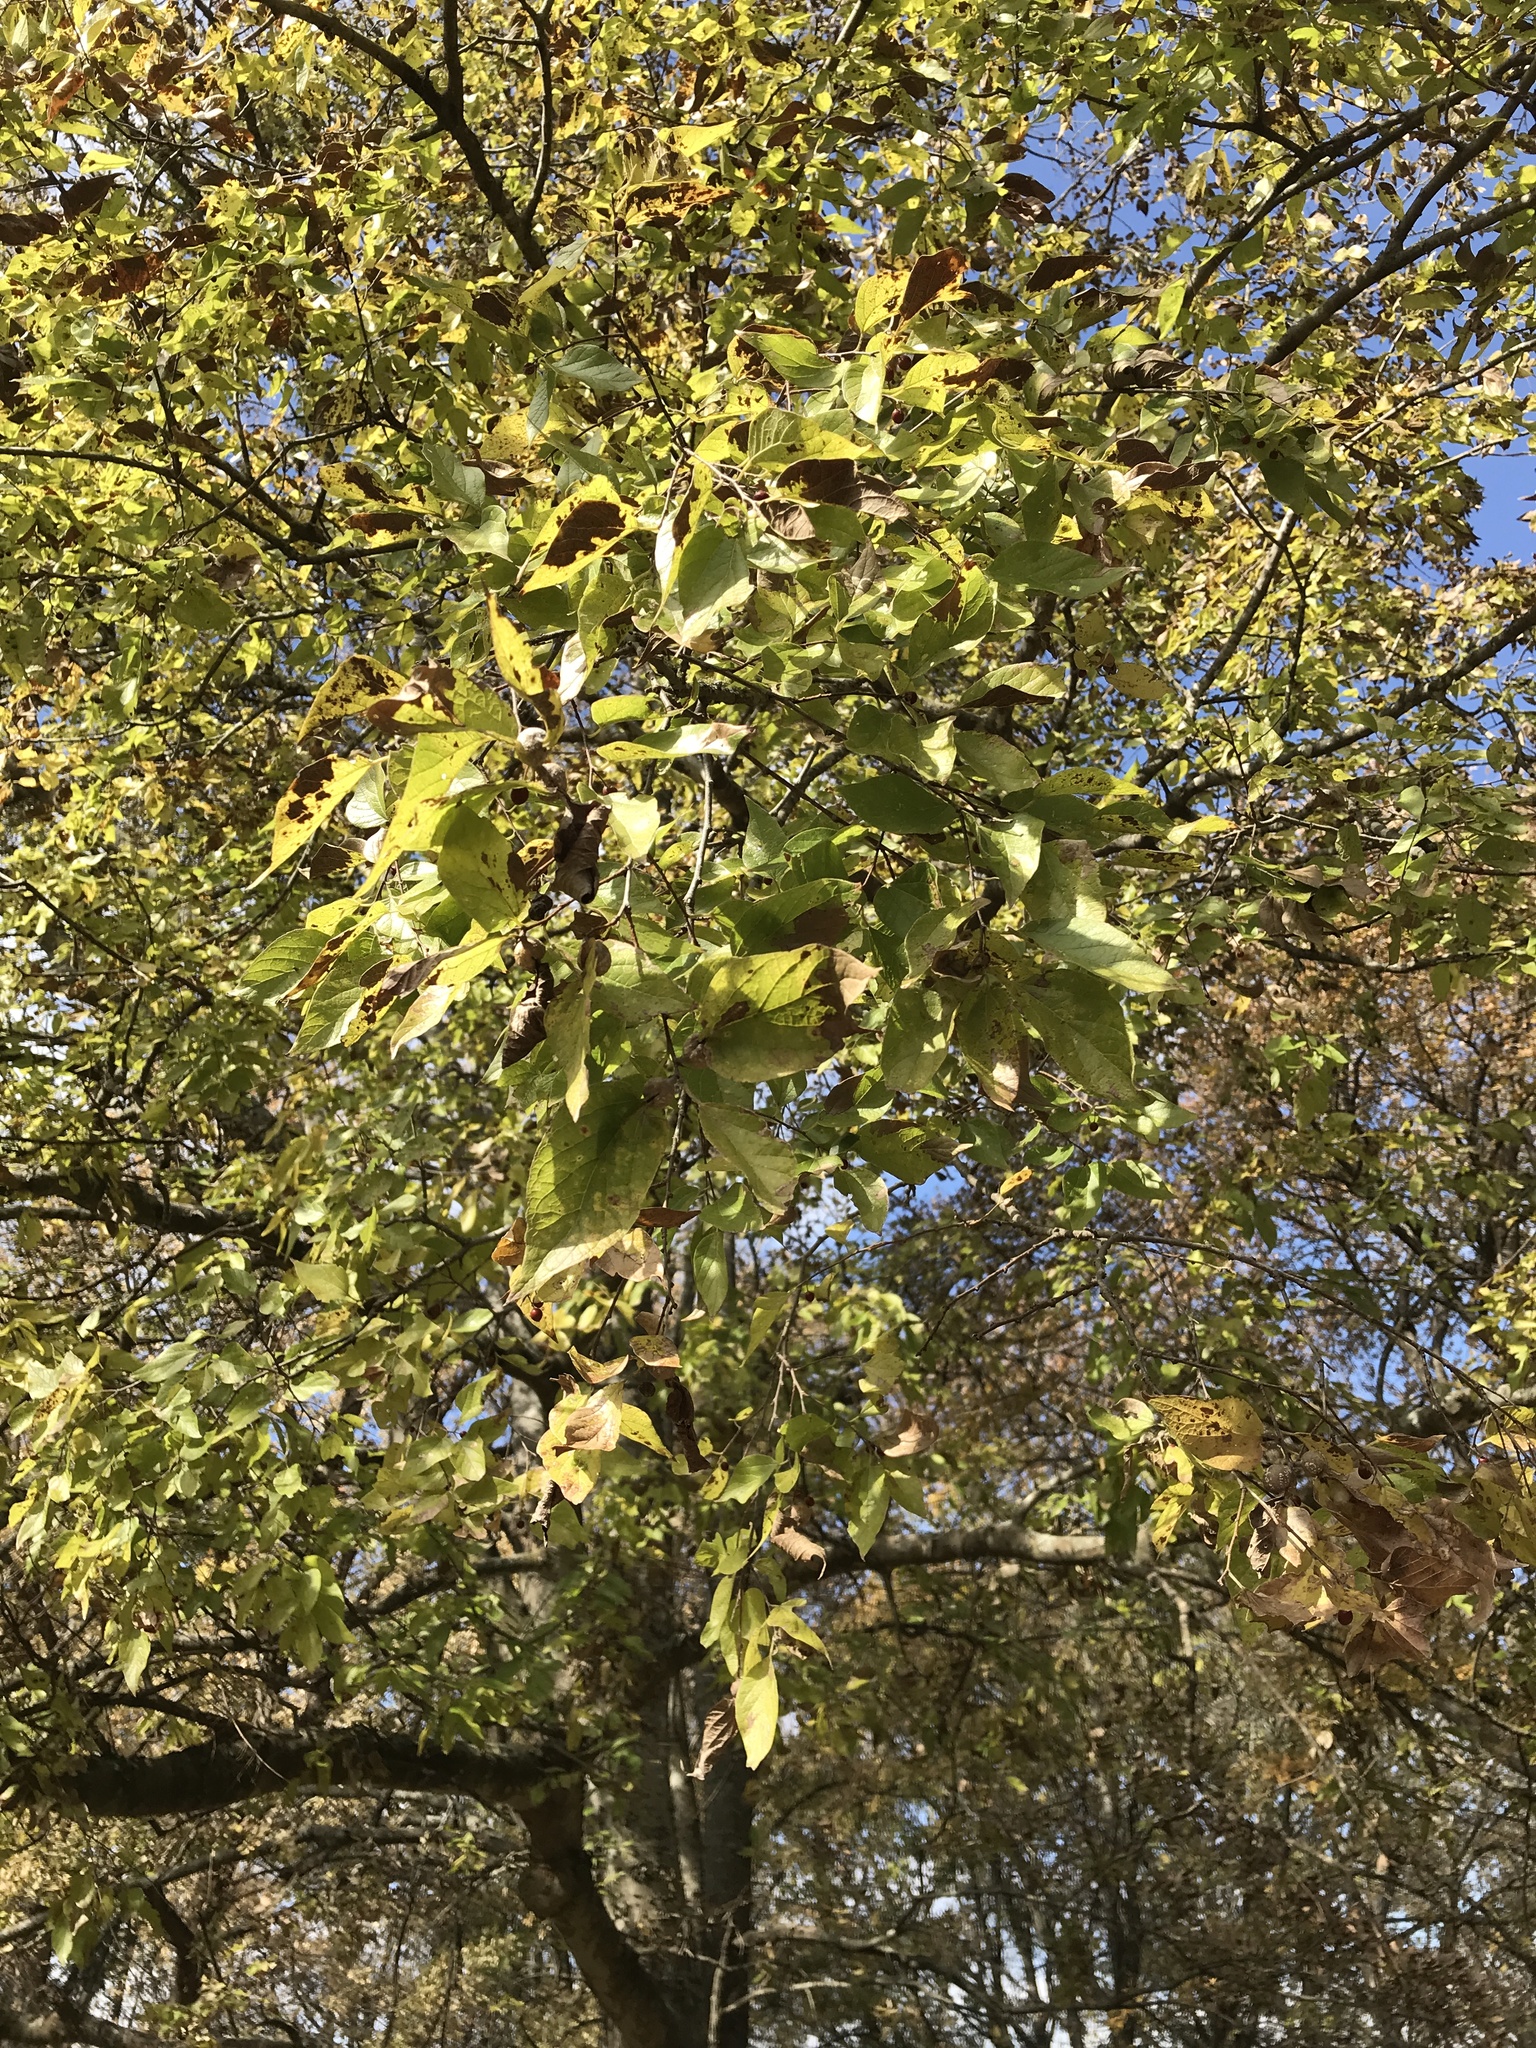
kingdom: Plantae
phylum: Tracheophyta
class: Magnoliopsida
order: Rosales
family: Cannabaceae
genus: Celtis
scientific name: Celtis laevigata
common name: Sugarberry
